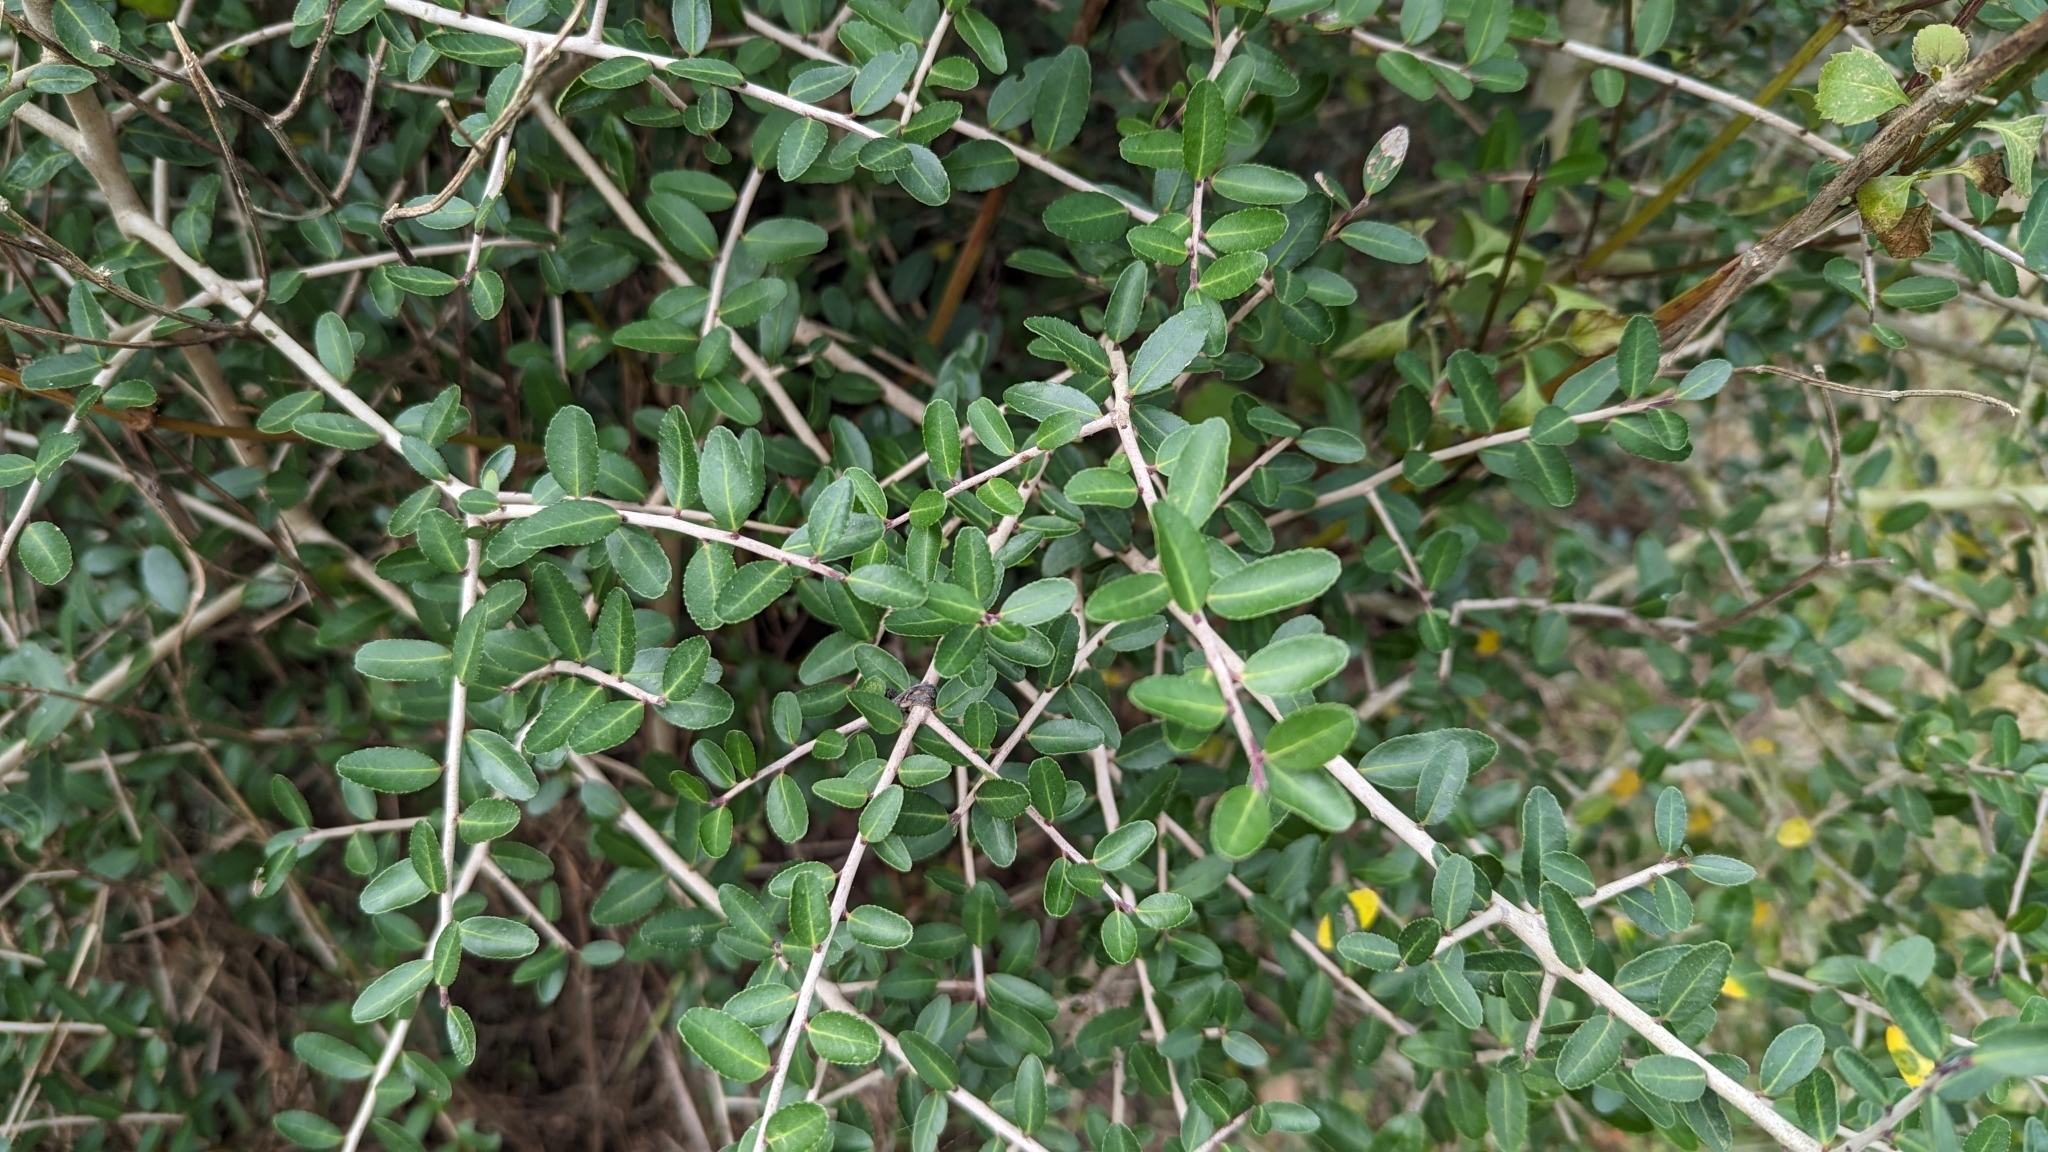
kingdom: Plantae
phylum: Tracheophyta
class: Magnoliopsida
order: Aquifoliales
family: Aquifoliaceae
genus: Ilex
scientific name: Ilex vomitoria
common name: Yaupon holly
